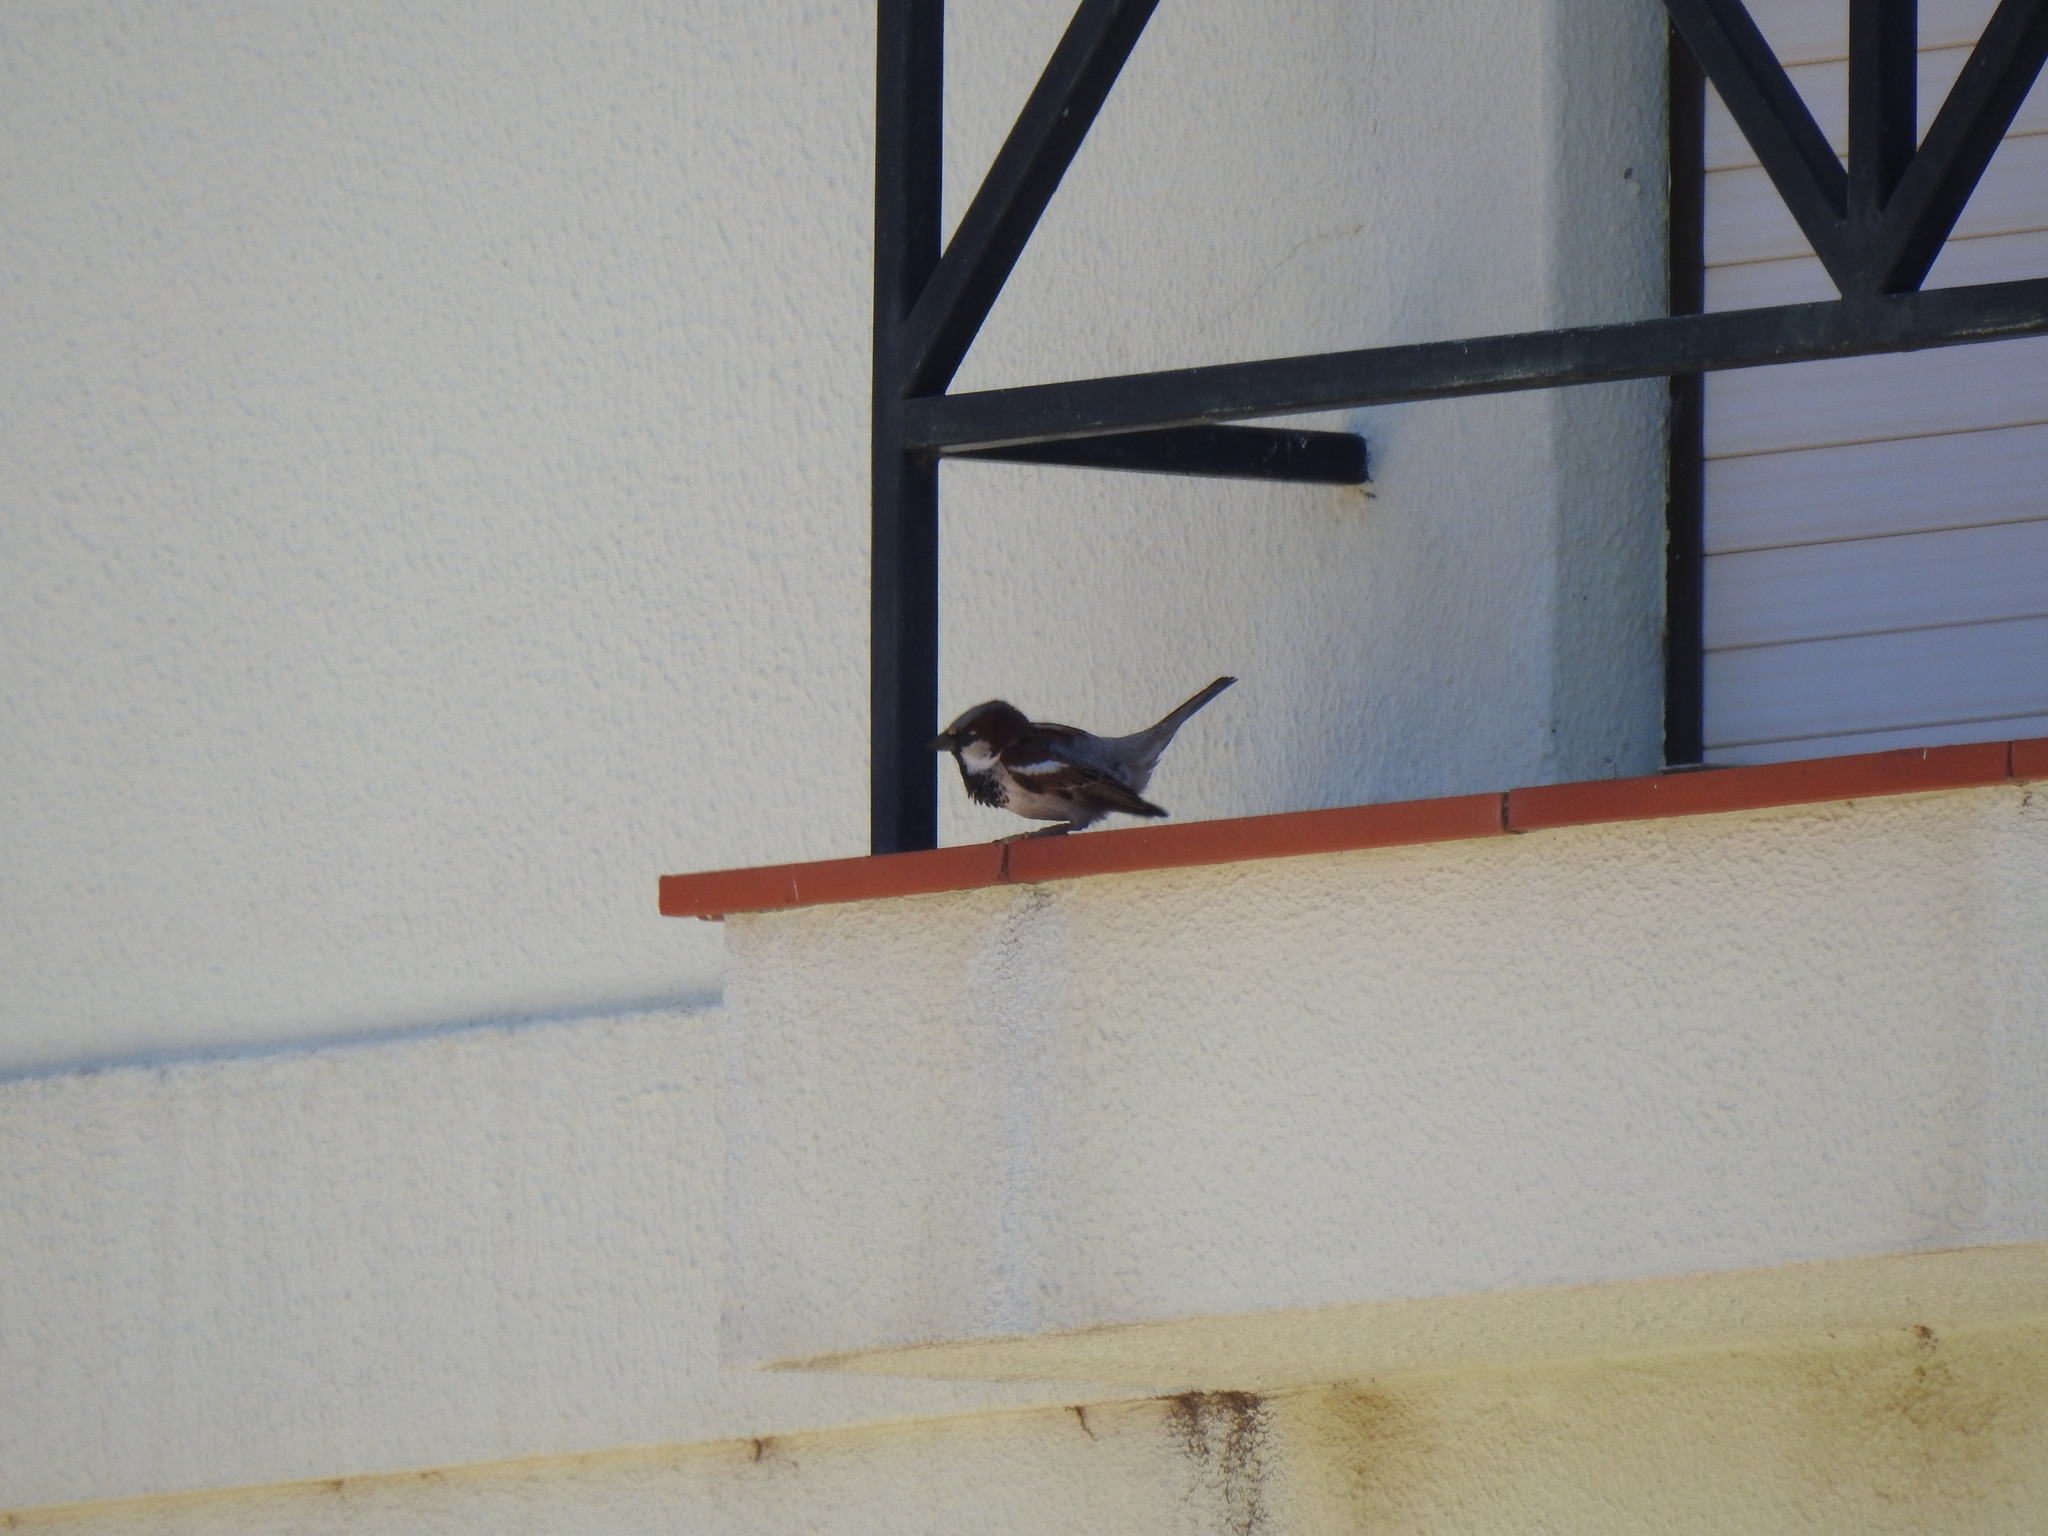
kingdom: Animalia
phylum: Chordata
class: Aves
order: Passeriformes
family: Passeridae
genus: Passer
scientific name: Passer domesticus
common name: House sparrow
